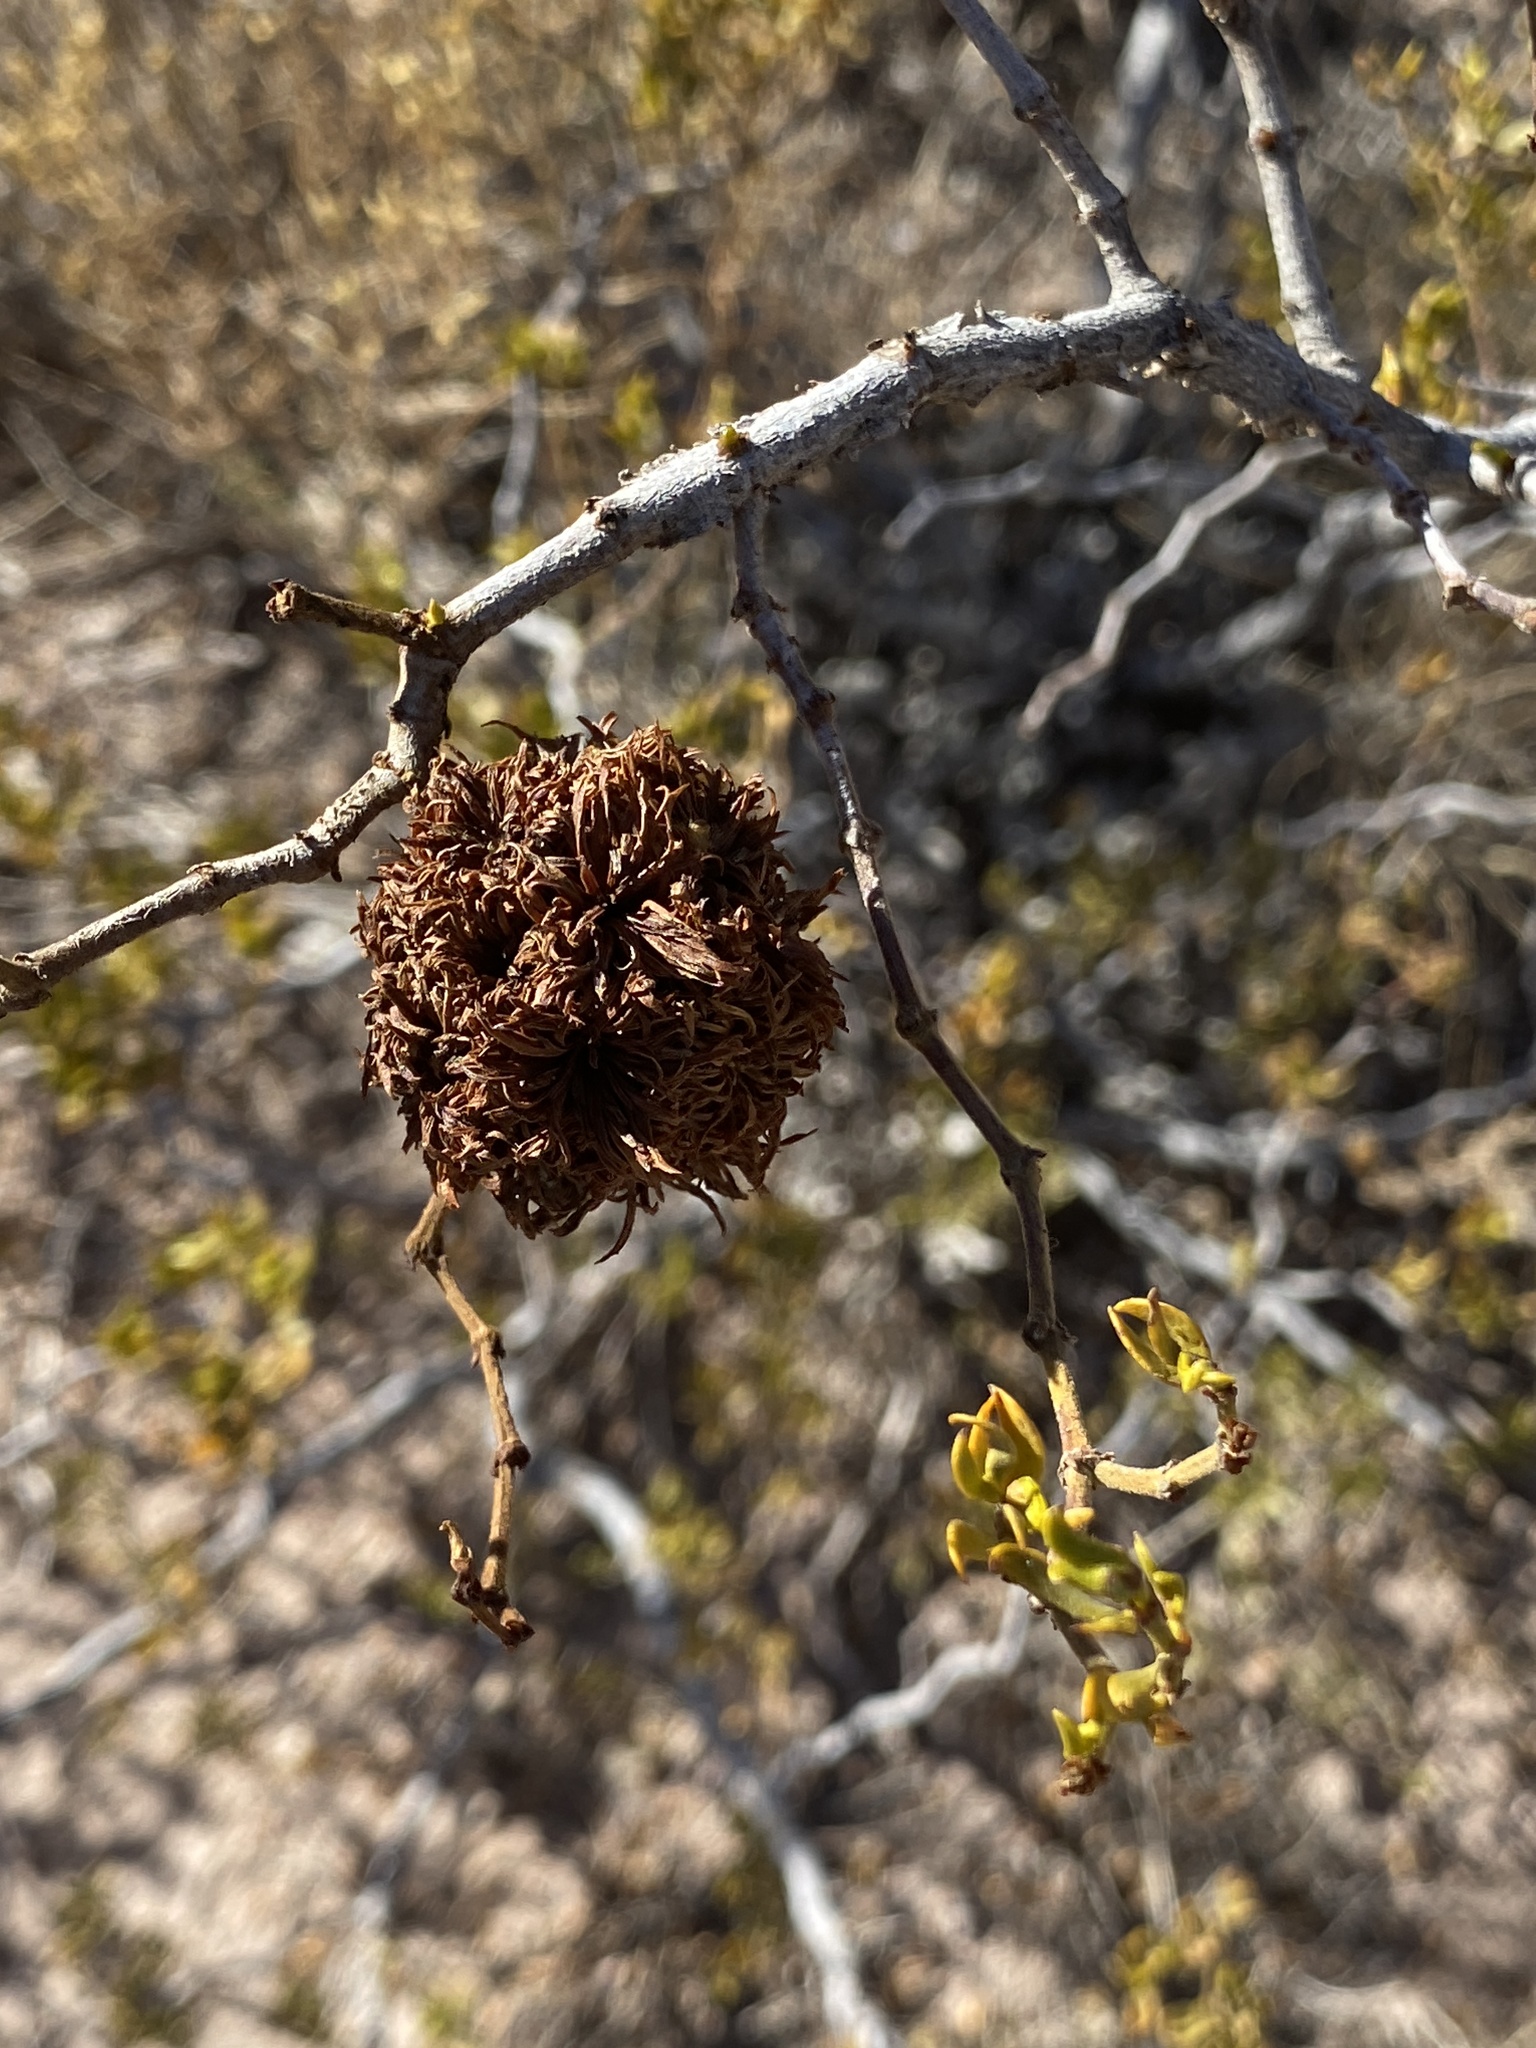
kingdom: Animalia
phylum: Arthropoda
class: Insecta
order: Diptera
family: Cecidomyiidae
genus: Asphondylia
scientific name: Asphondylia auripila
